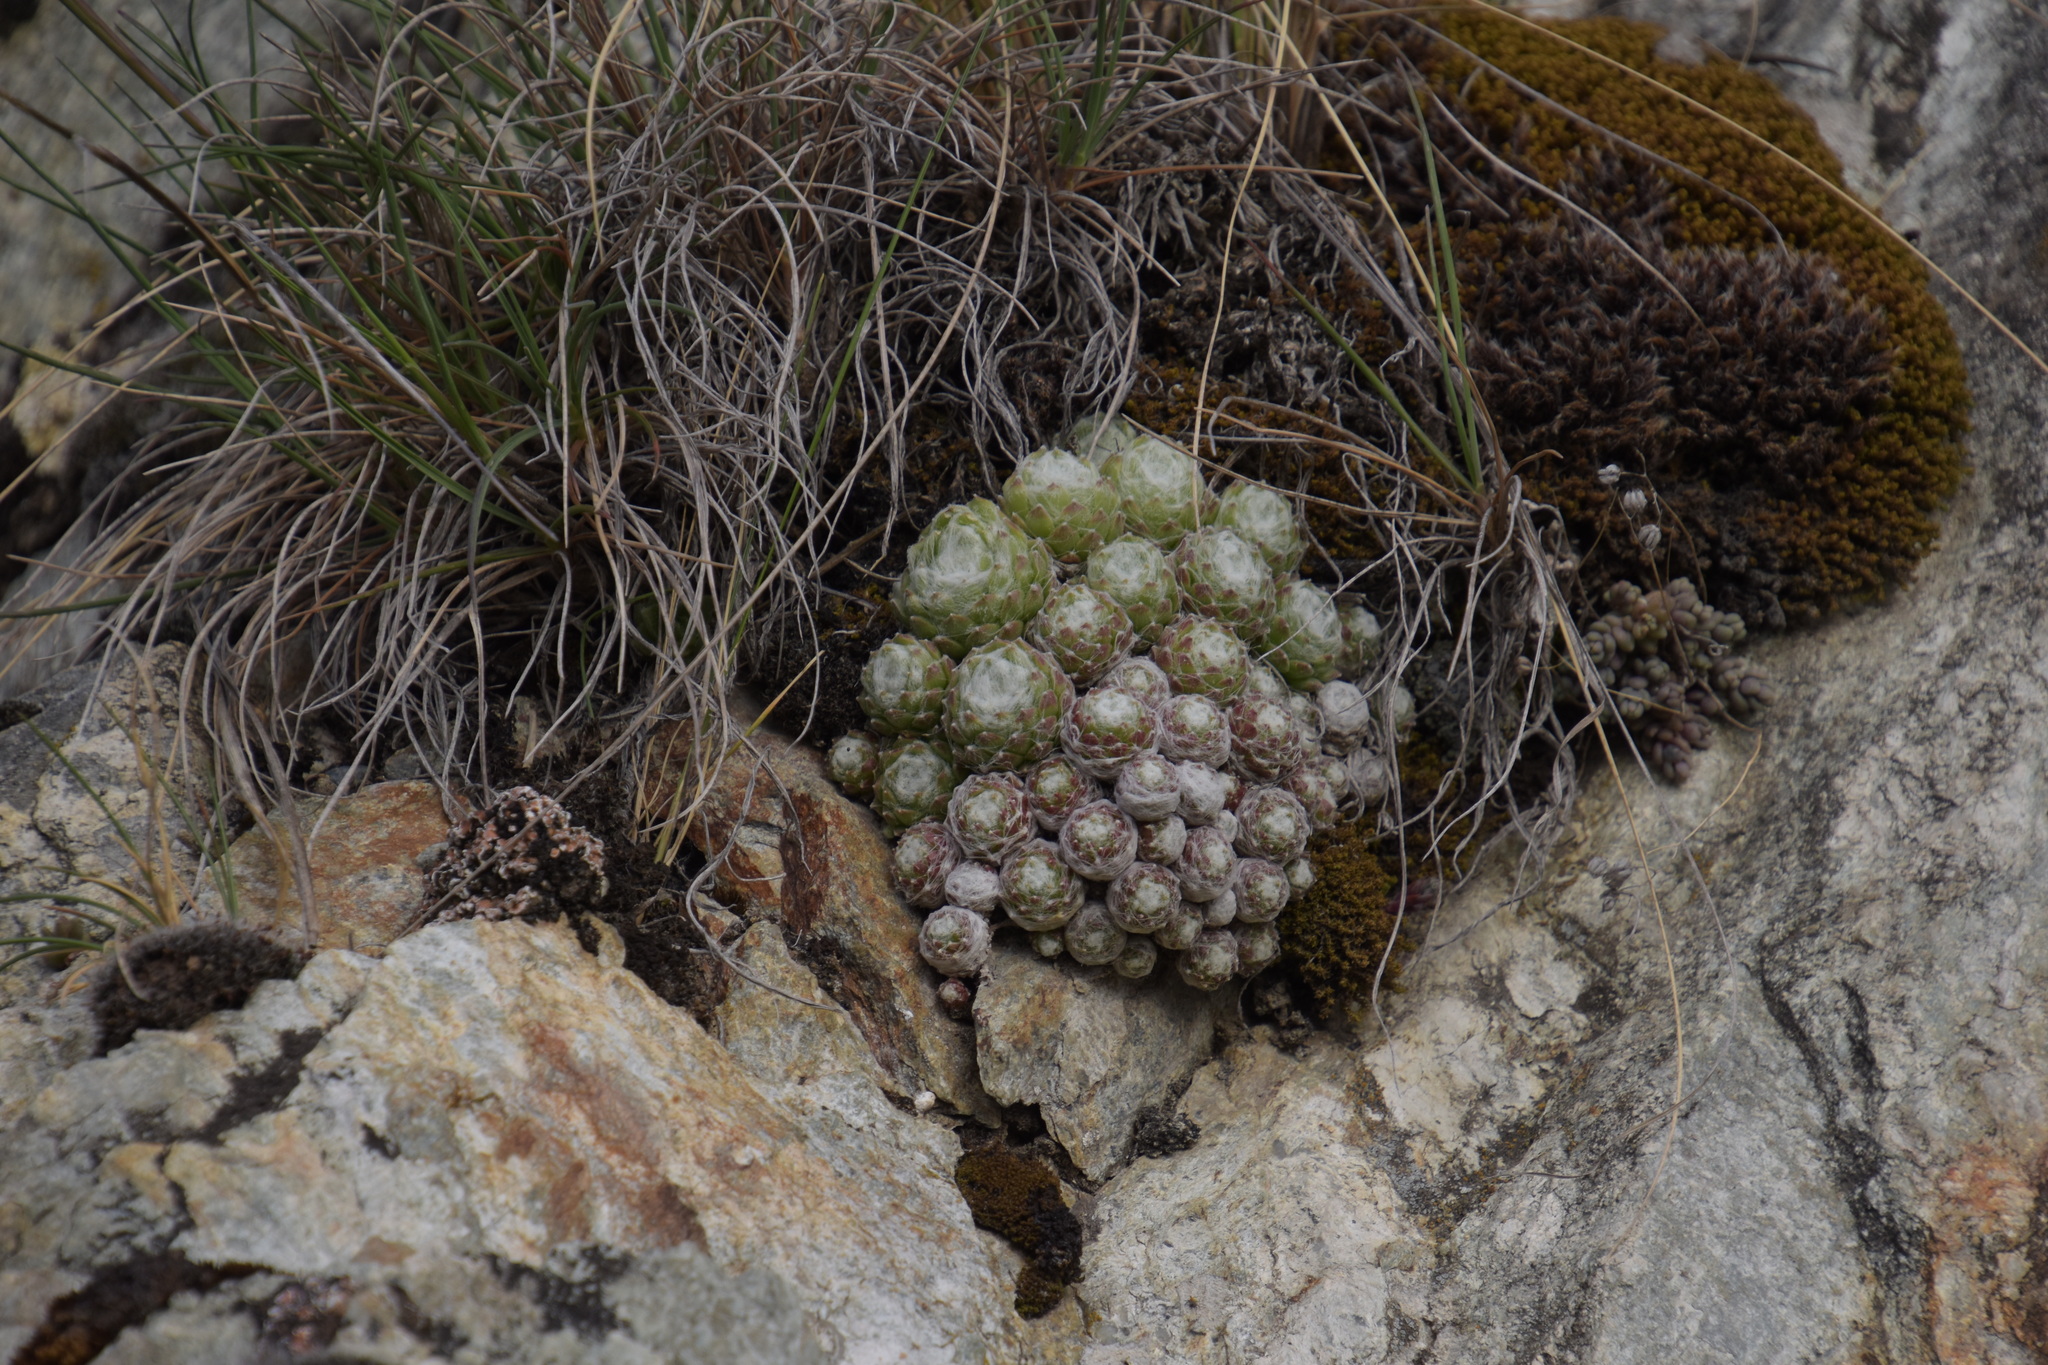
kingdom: Plantae
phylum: Tracheophyta
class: Magnoliopsida
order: Saxifragales
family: Crassulaceae
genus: Sempervivum
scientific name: Sempervivum arachnoideum
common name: Cobweb house-leek
